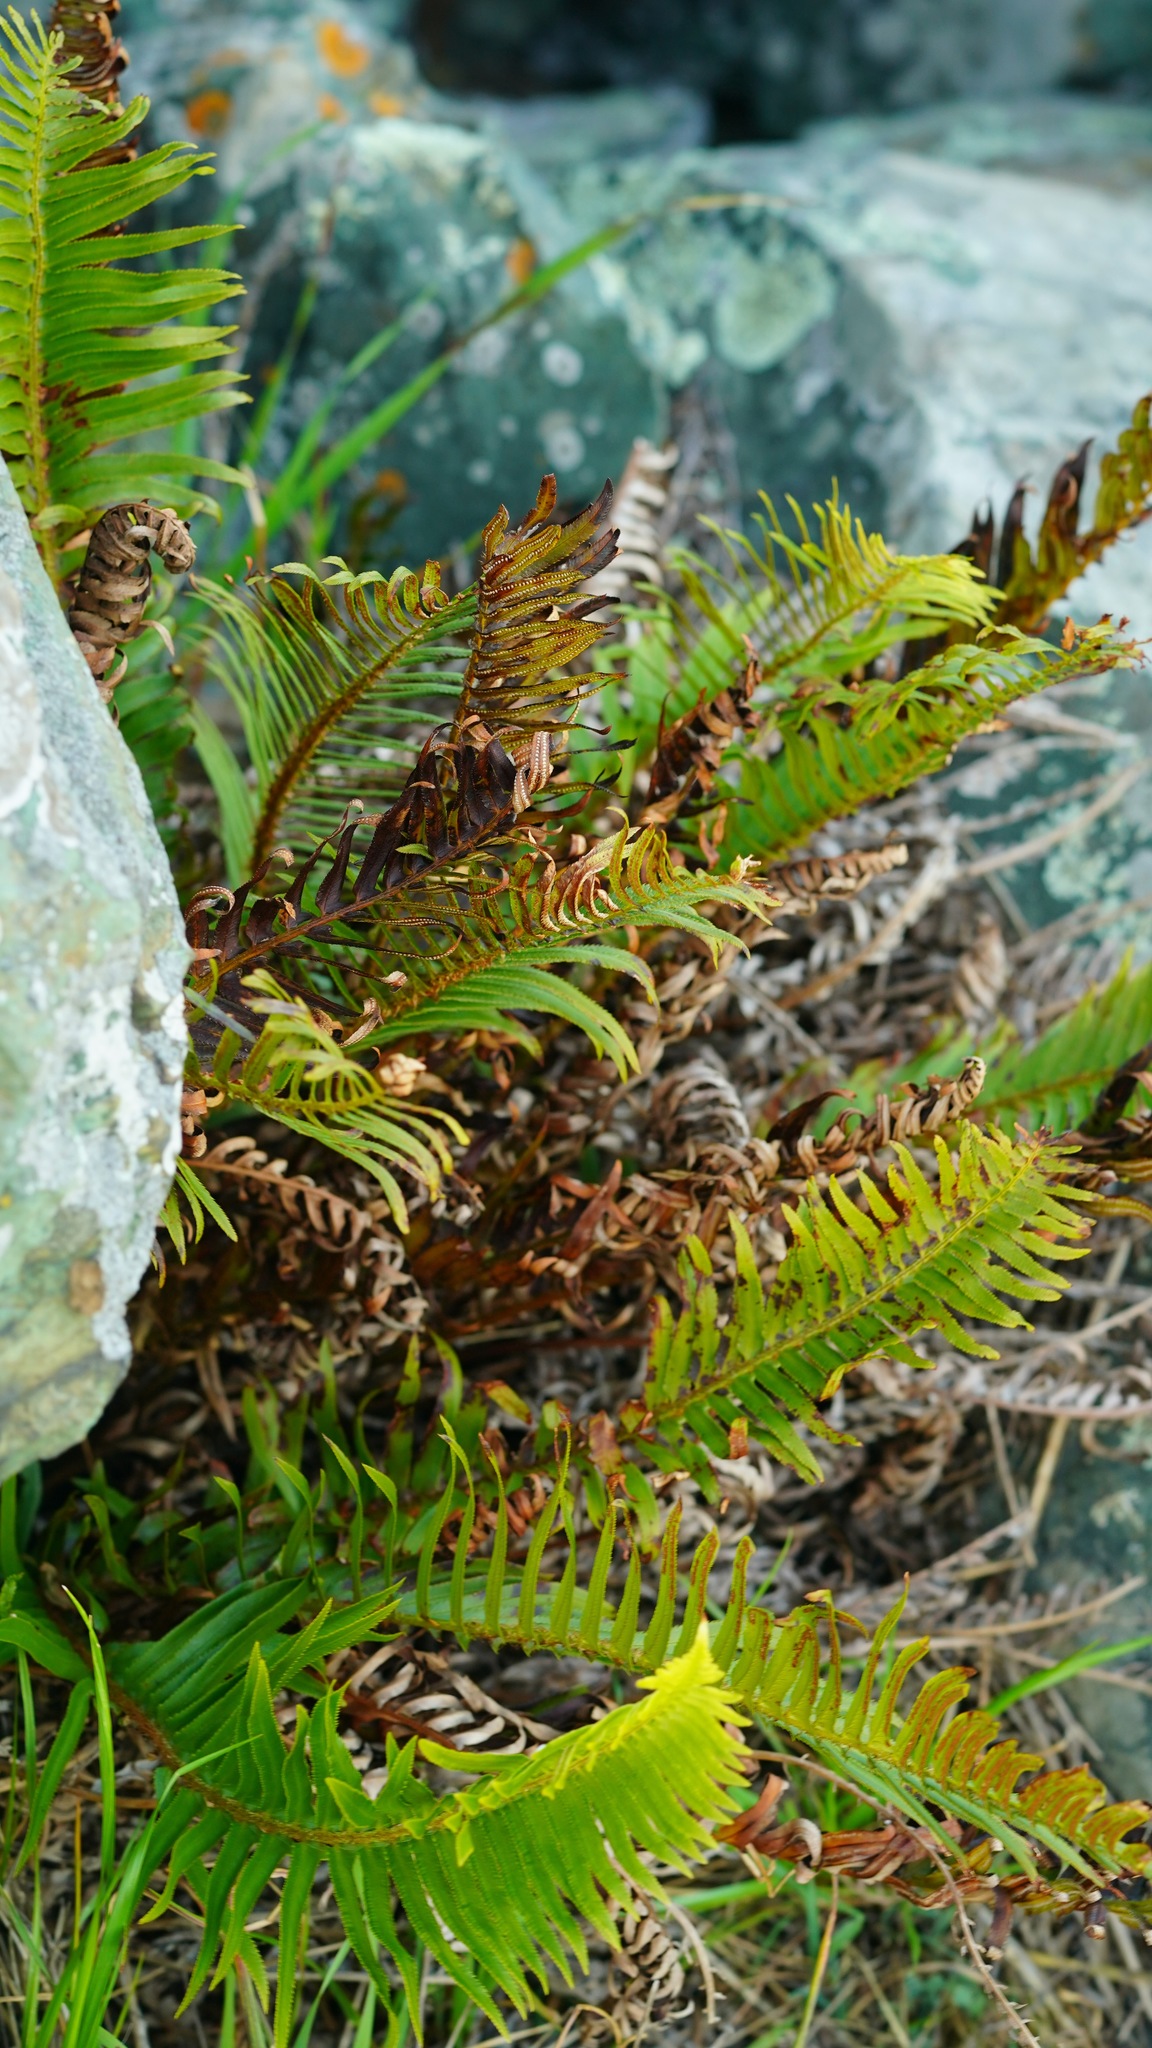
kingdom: Plantae
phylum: Tracheophyta
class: Polypodiopsida
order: Polypodiales
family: Dryopteridaceae
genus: Polystichum
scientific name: Polystichum munitum
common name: Western sword-fern
